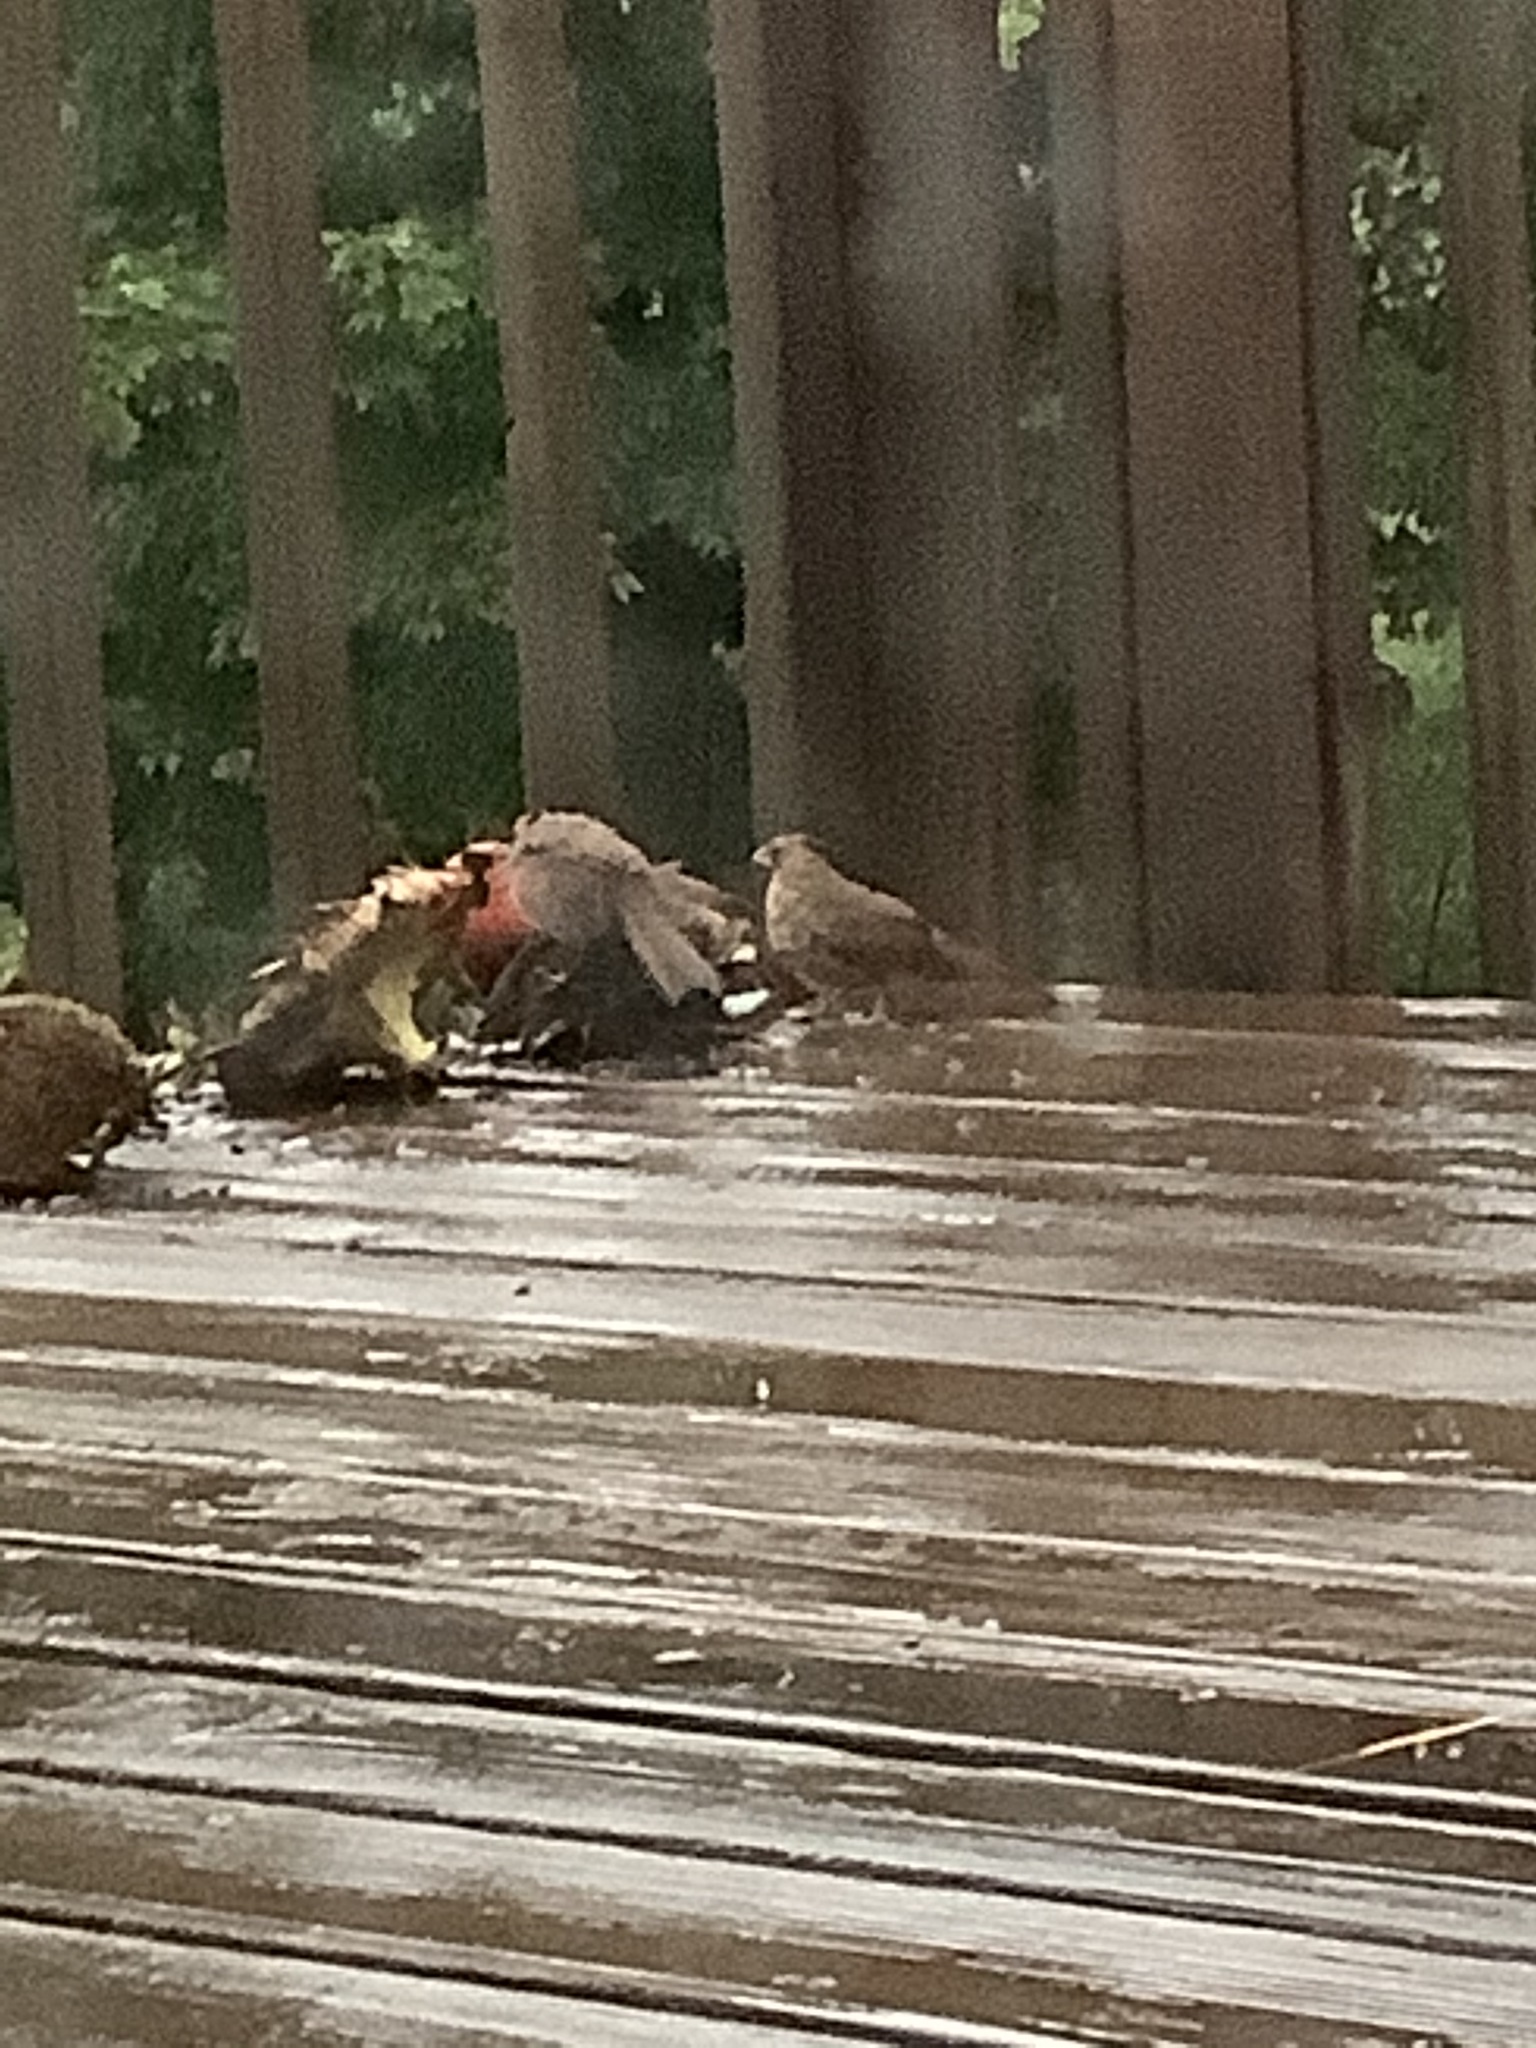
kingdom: Animalia
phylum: Chordata
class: Aves
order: Passeriformes
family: Cardinalidae
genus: Cardinalis
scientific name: Cardinalis cardinalis
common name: Northern cardinal
